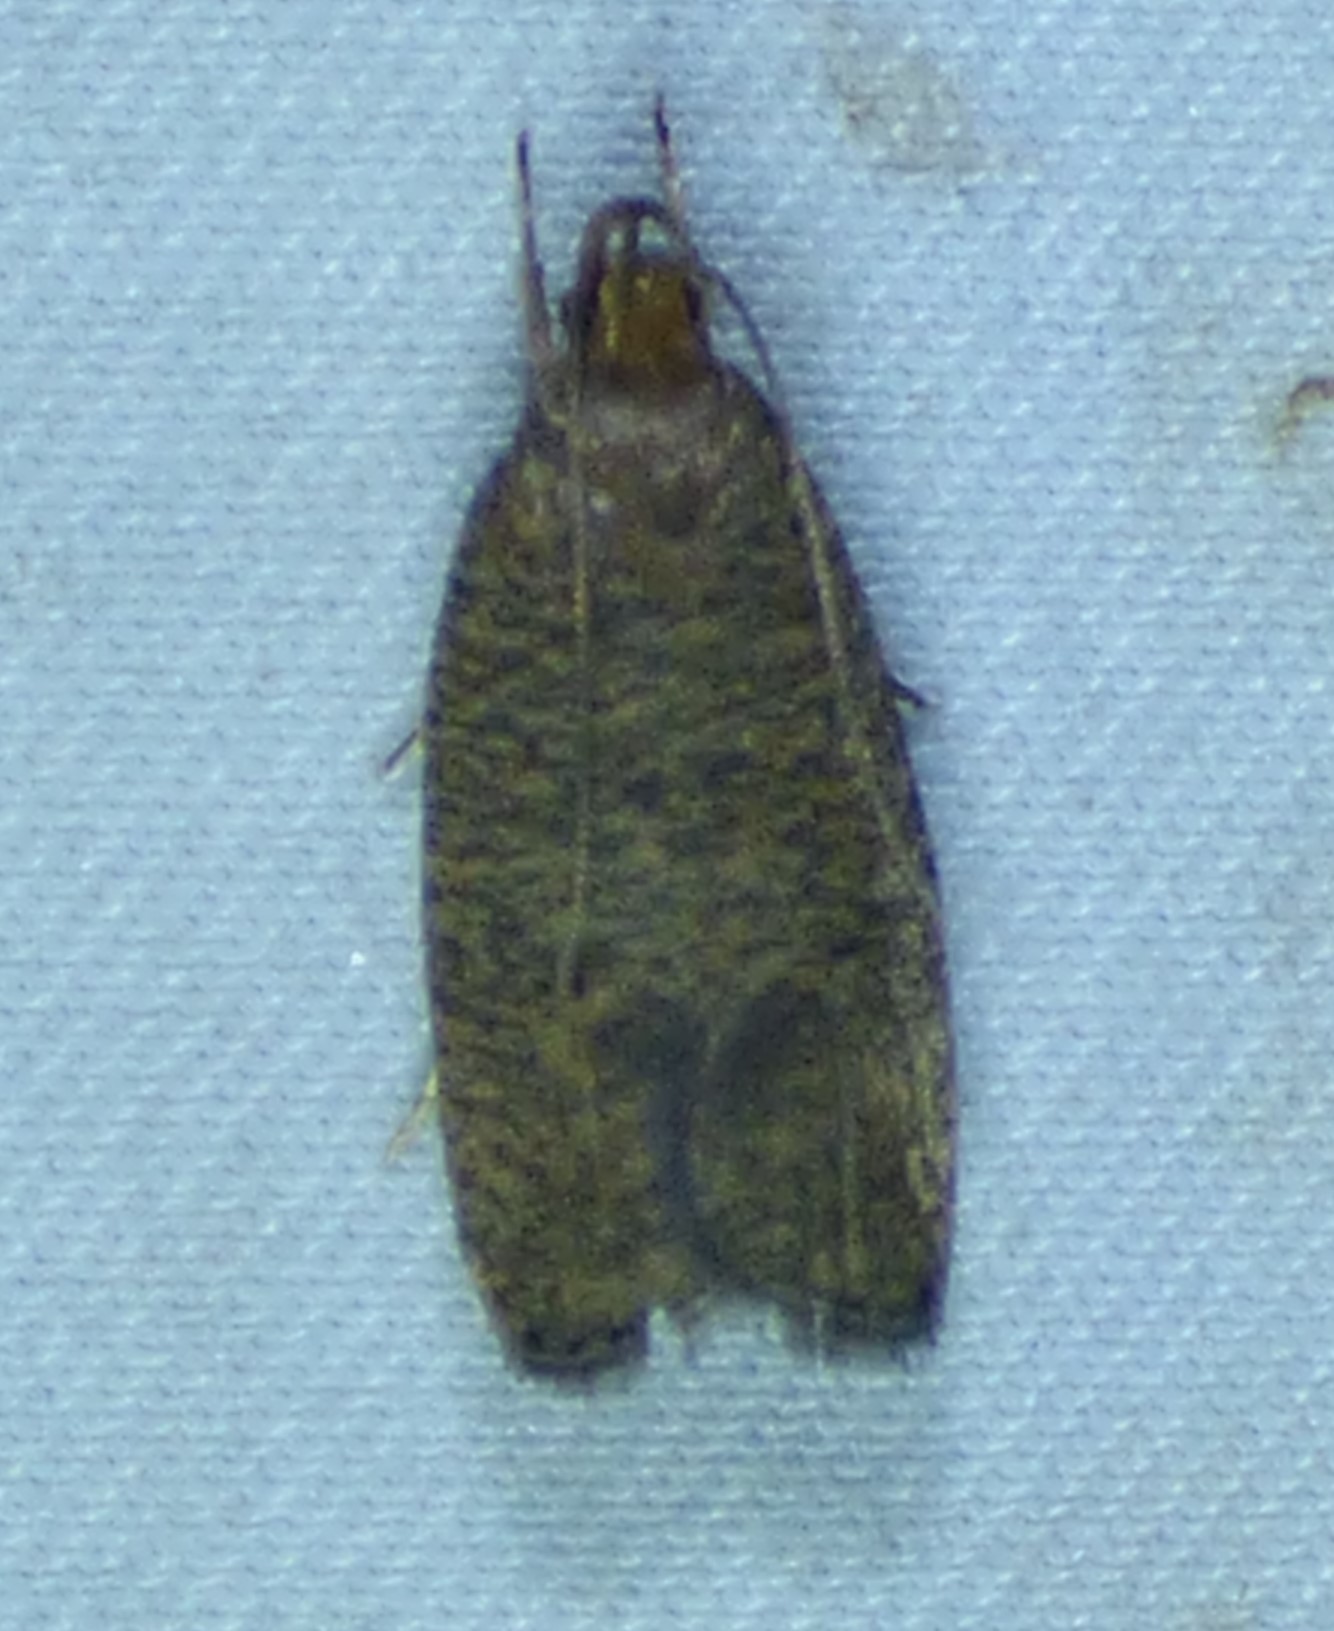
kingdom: Animalia
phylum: Arthropoda
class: Insecta
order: Lepidoptera
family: Depressariidae
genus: Psilocorsis
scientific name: Psilocorsis reflexella
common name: Dotted leaftier moth
